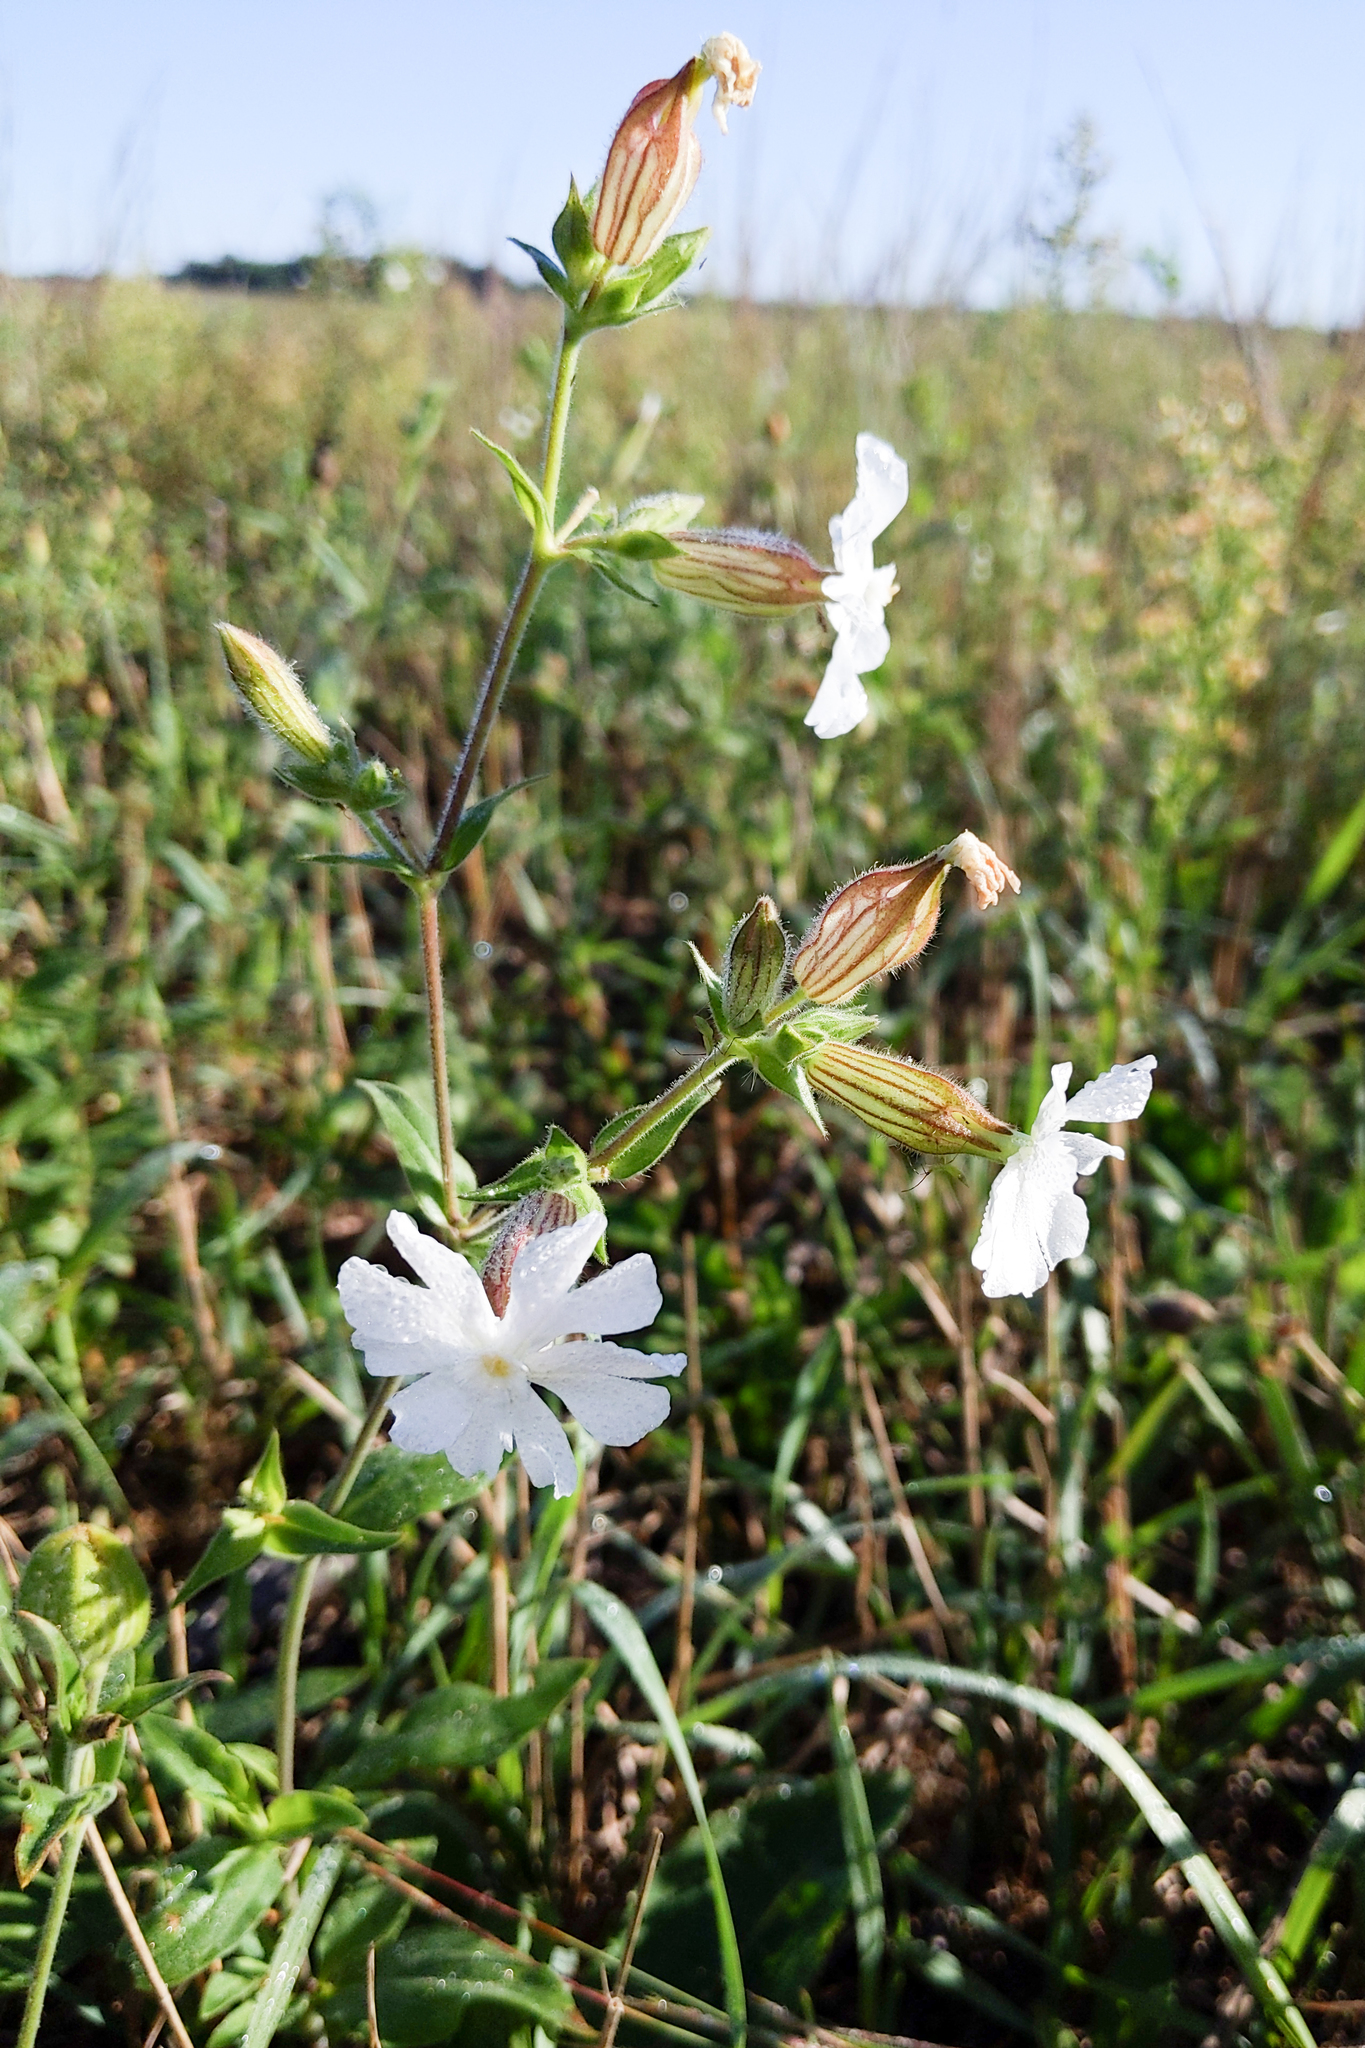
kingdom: Plantae
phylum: Tracheophyta
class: Magnoliopsida
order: Caryophyllales
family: Caryophyllaceae
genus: Silene
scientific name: Silene latifolia
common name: White campion
